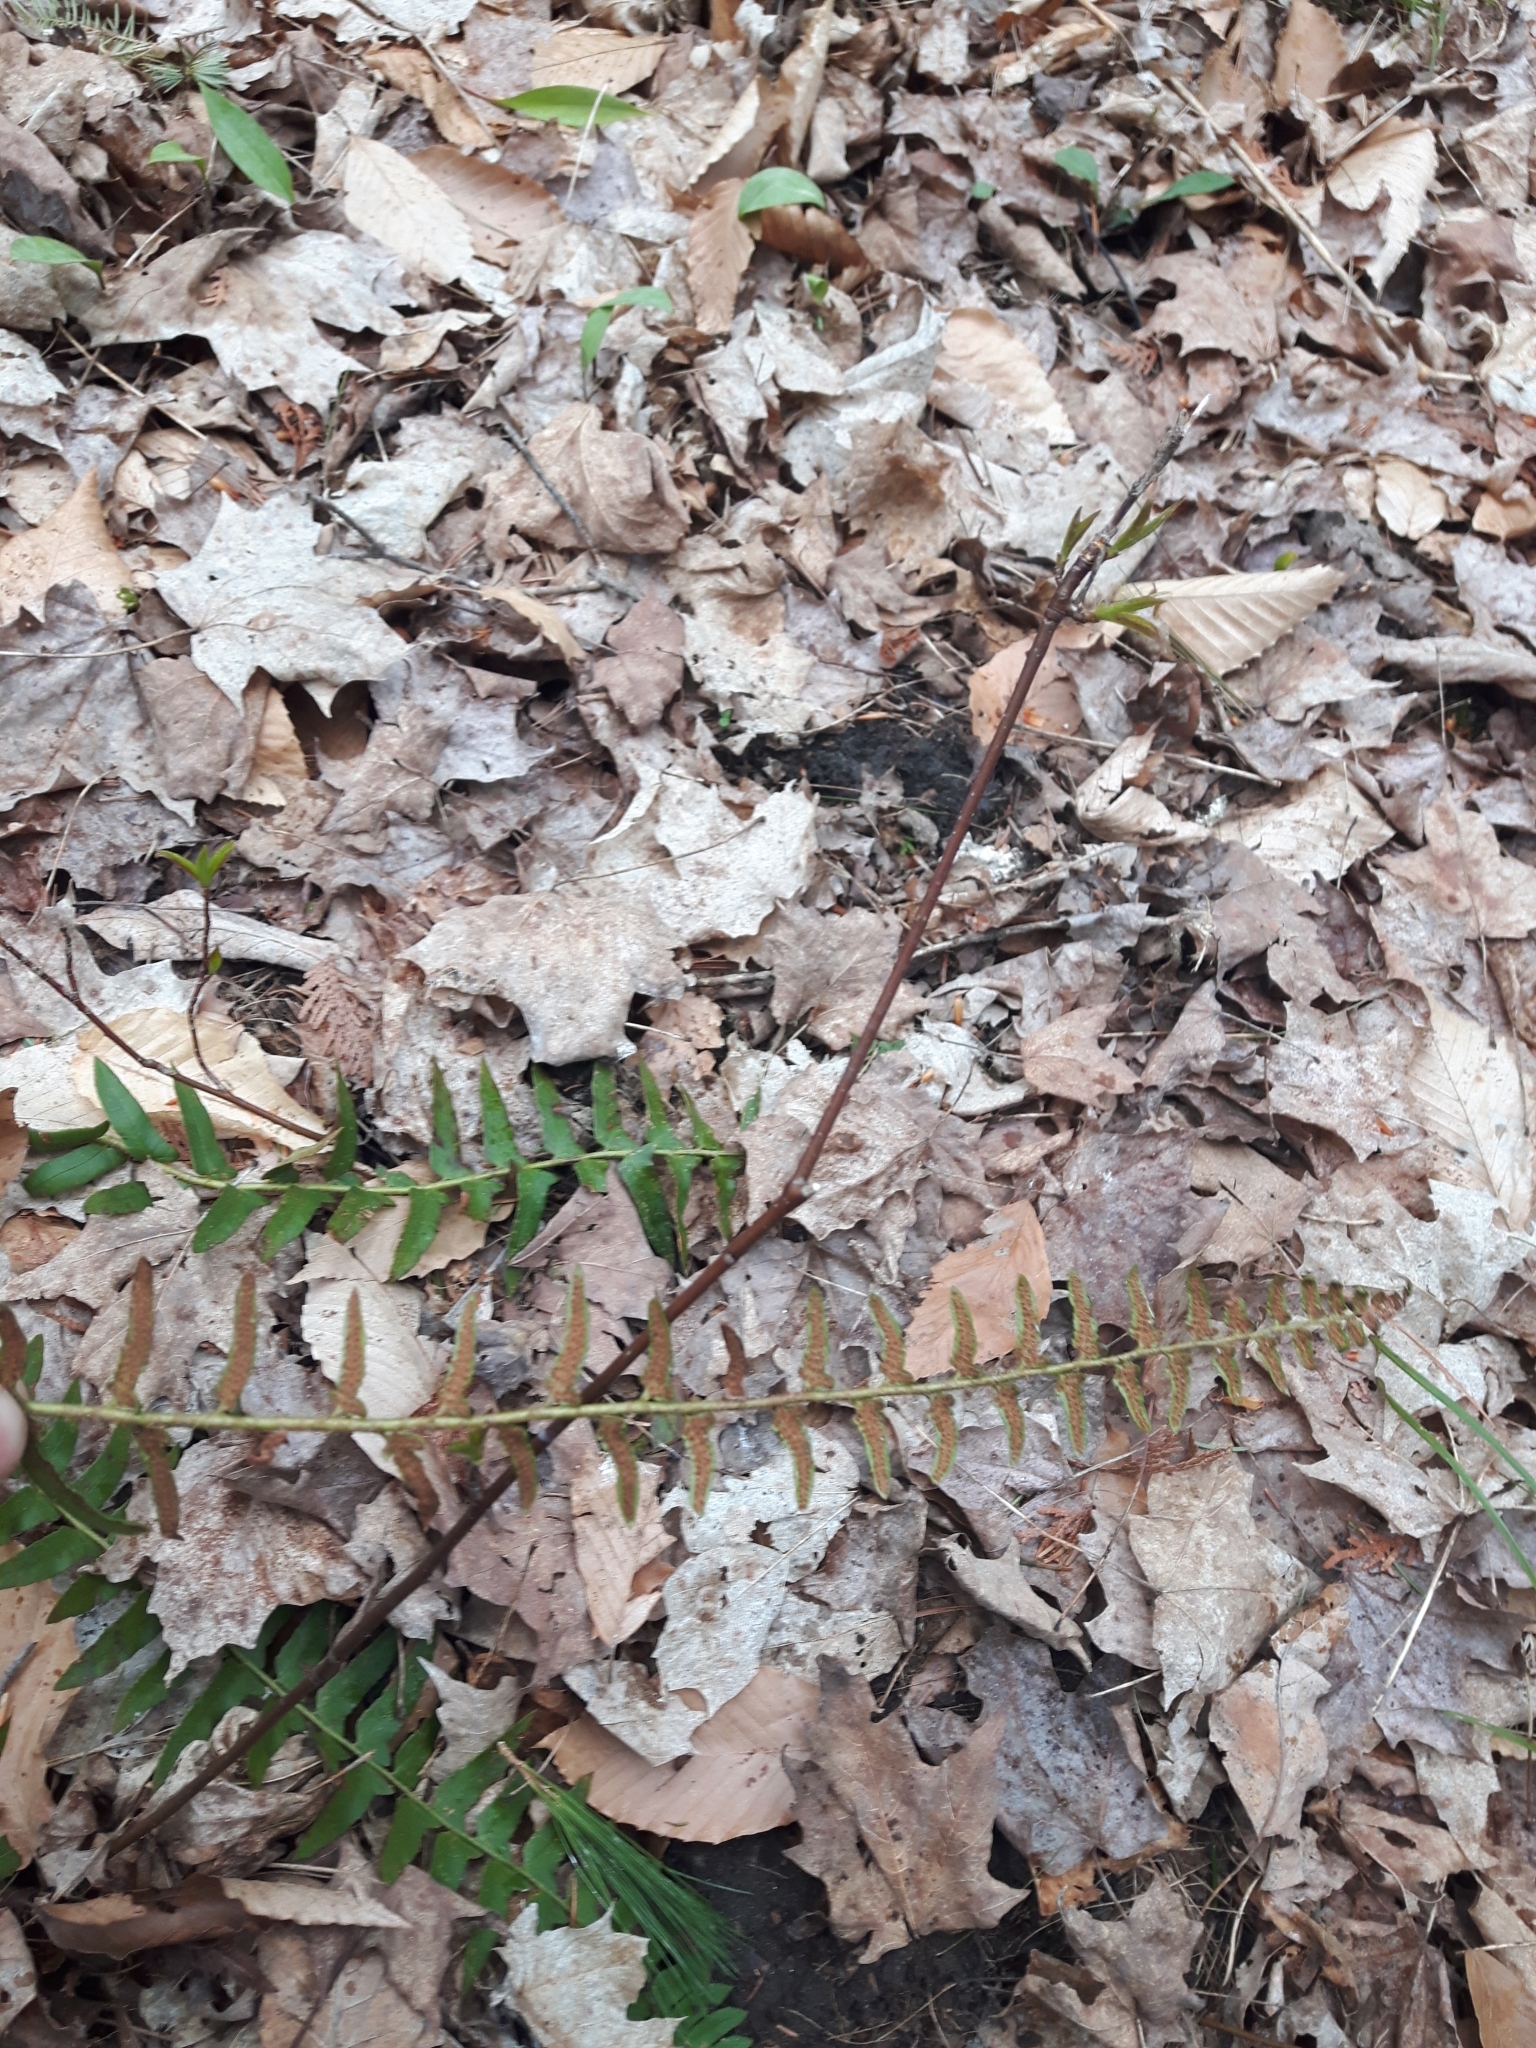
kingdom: Plantae
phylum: Tracheophyta
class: Polypodiopsida
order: Polypodiales
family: Dryopteridaceae
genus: Polystichum
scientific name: Polystichum acrostichoides
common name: Christmas fern
